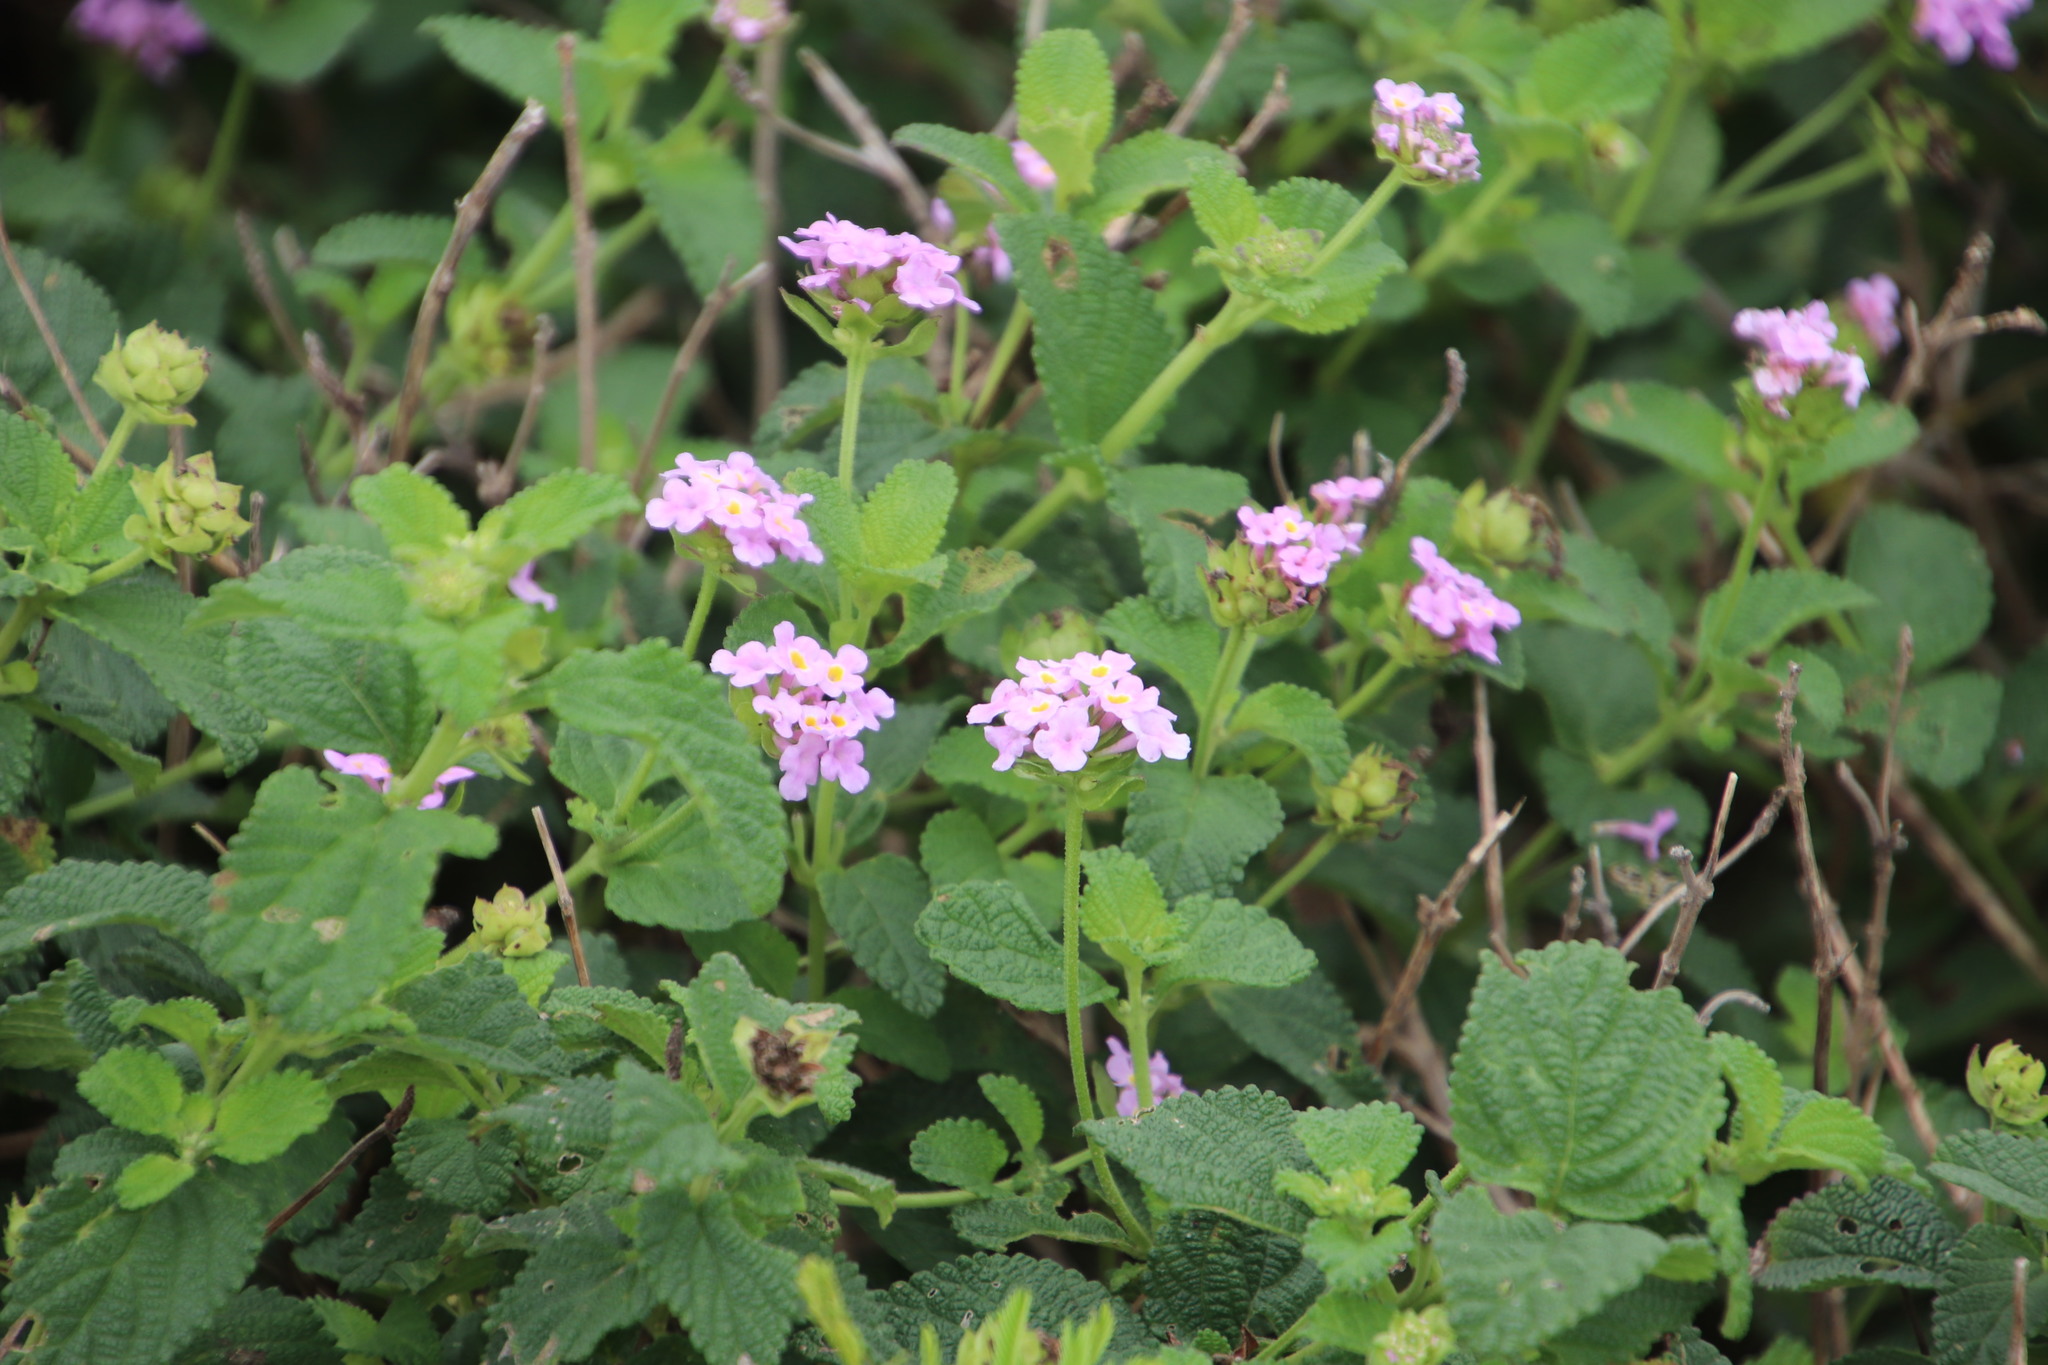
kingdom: Plantae
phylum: Tracheophyta
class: Magnoliopsida
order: Lamiales
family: Verbenaceae
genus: Lantana
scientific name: Lantana rugosa
